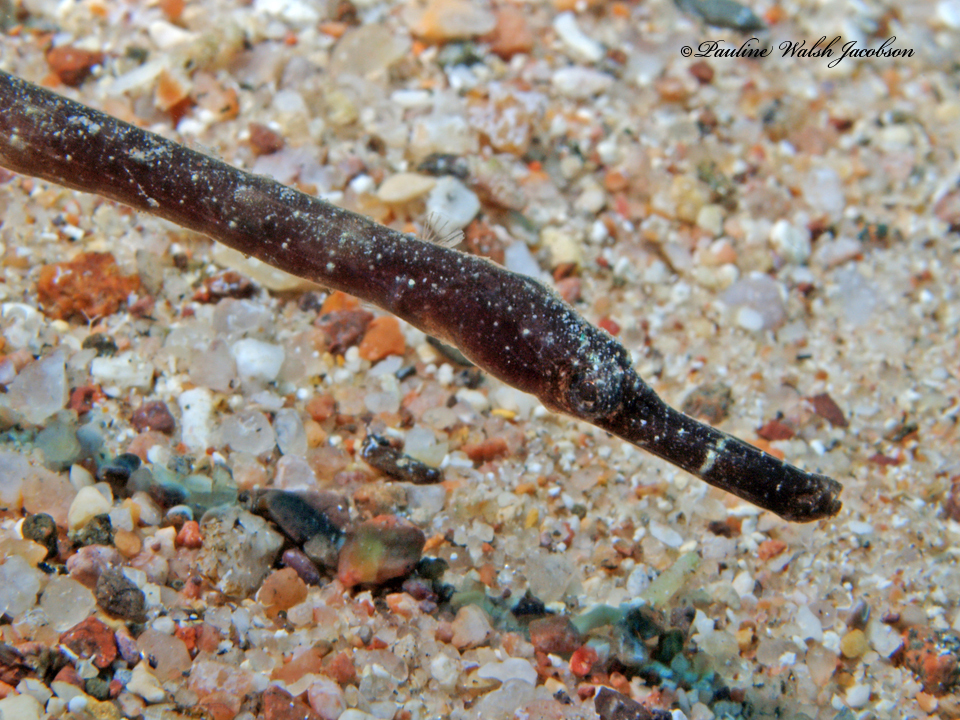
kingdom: Animalia
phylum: Chordata
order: Syngnathiformes
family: Syngnathidae
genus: Trachyrhamphus
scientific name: Trachyrhamphus bicoarctatus
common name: Double-ended pipefish
